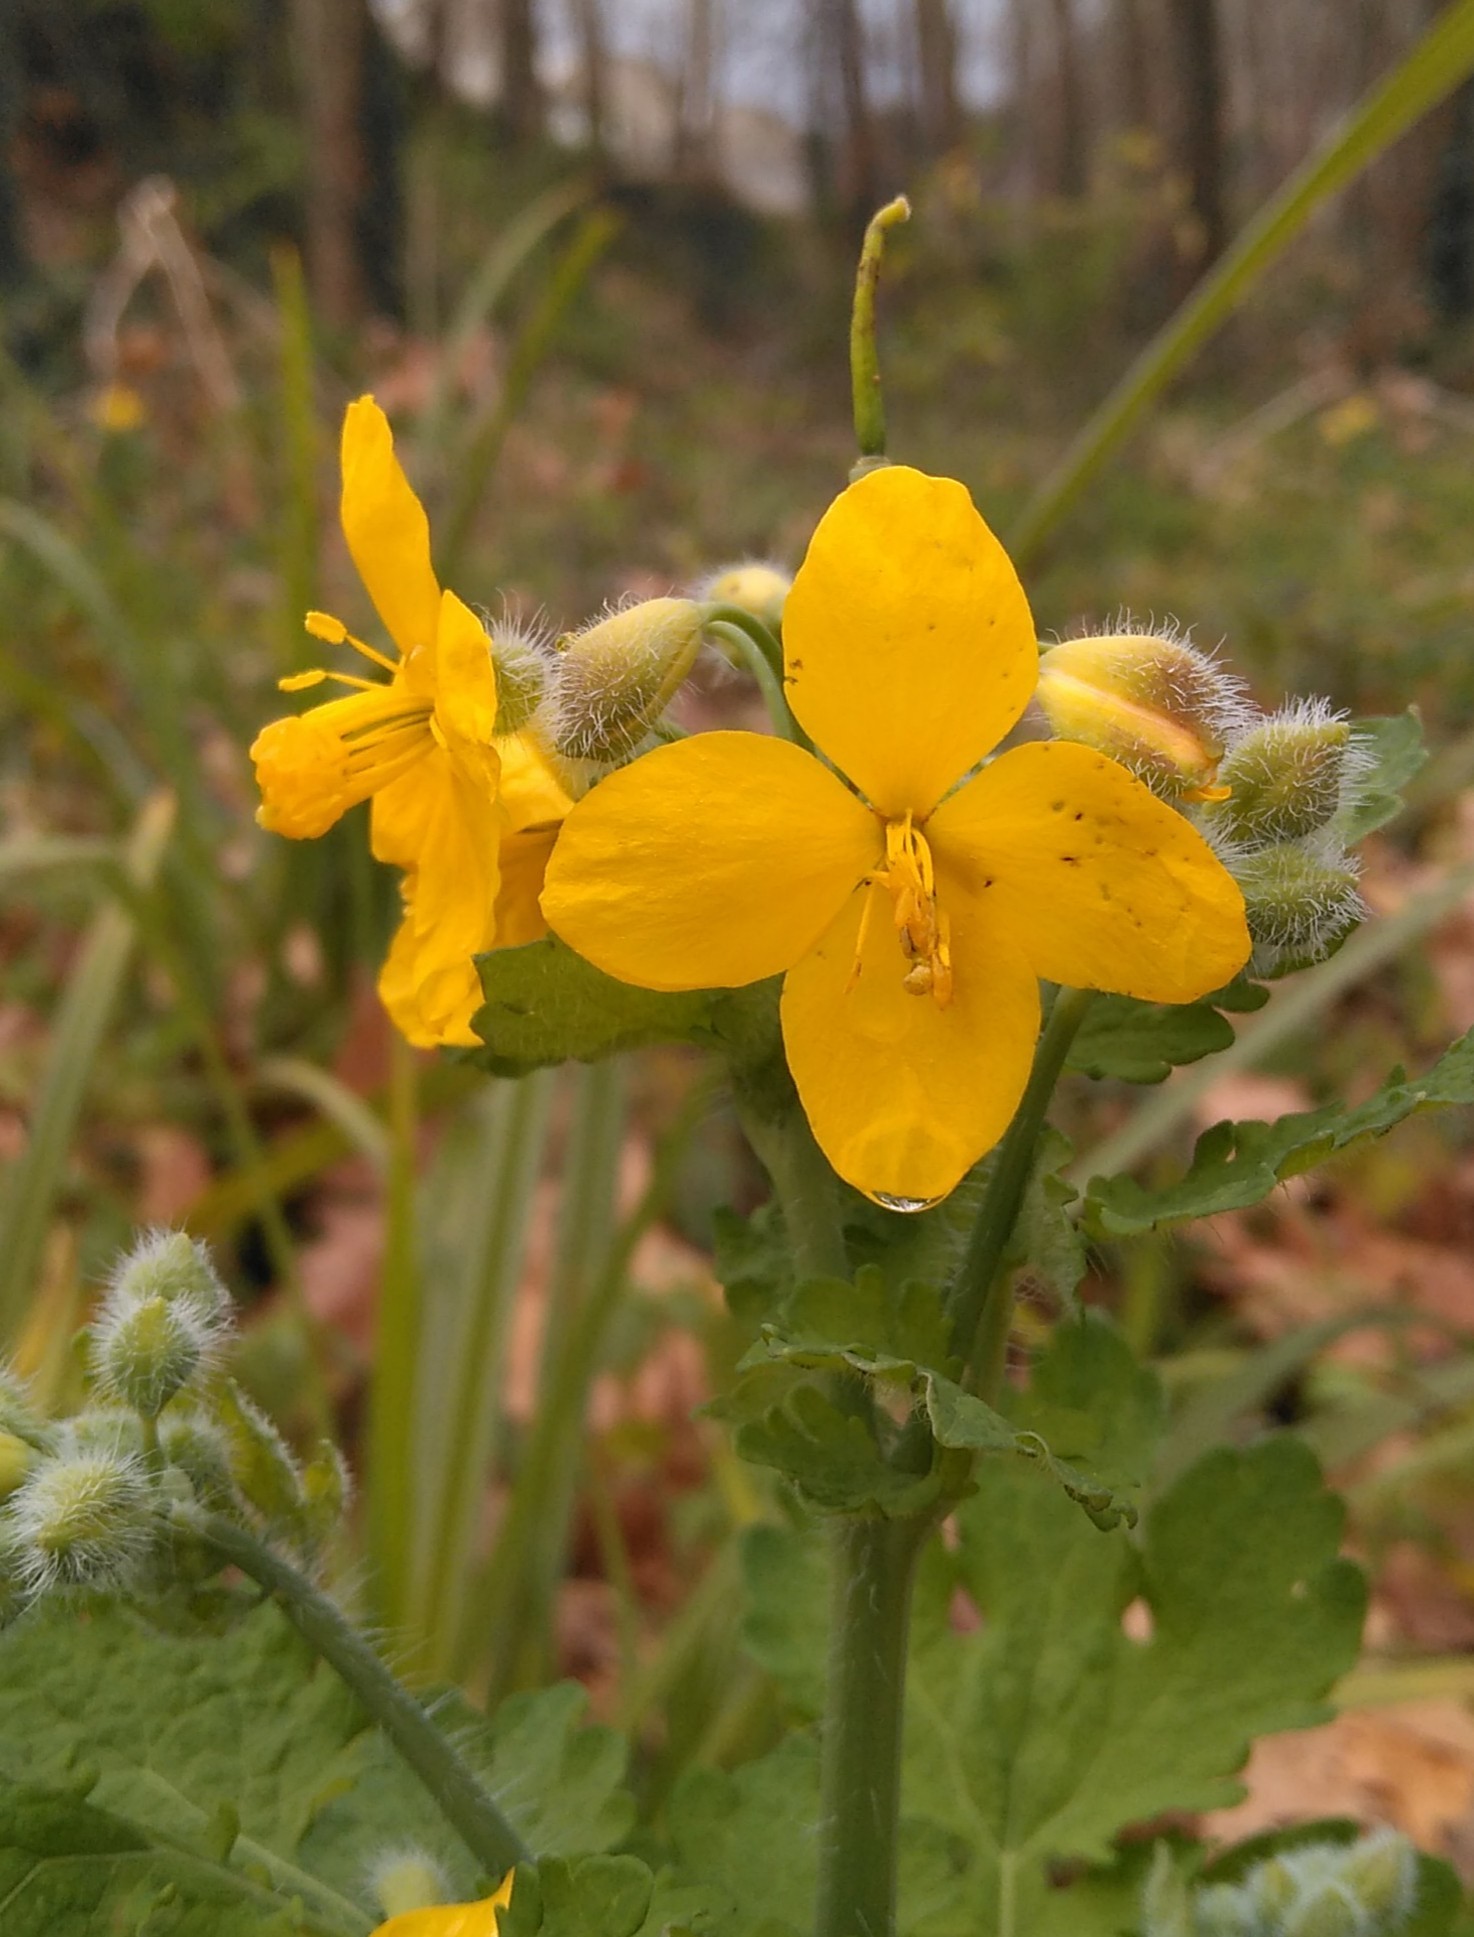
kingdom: Plantae
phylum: Tracheophyta
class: Magnoliopsida
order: Ranunculales
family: Papaveraceae
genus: Chelidonium
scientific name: Chelidonium majus
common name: Greater celandine
